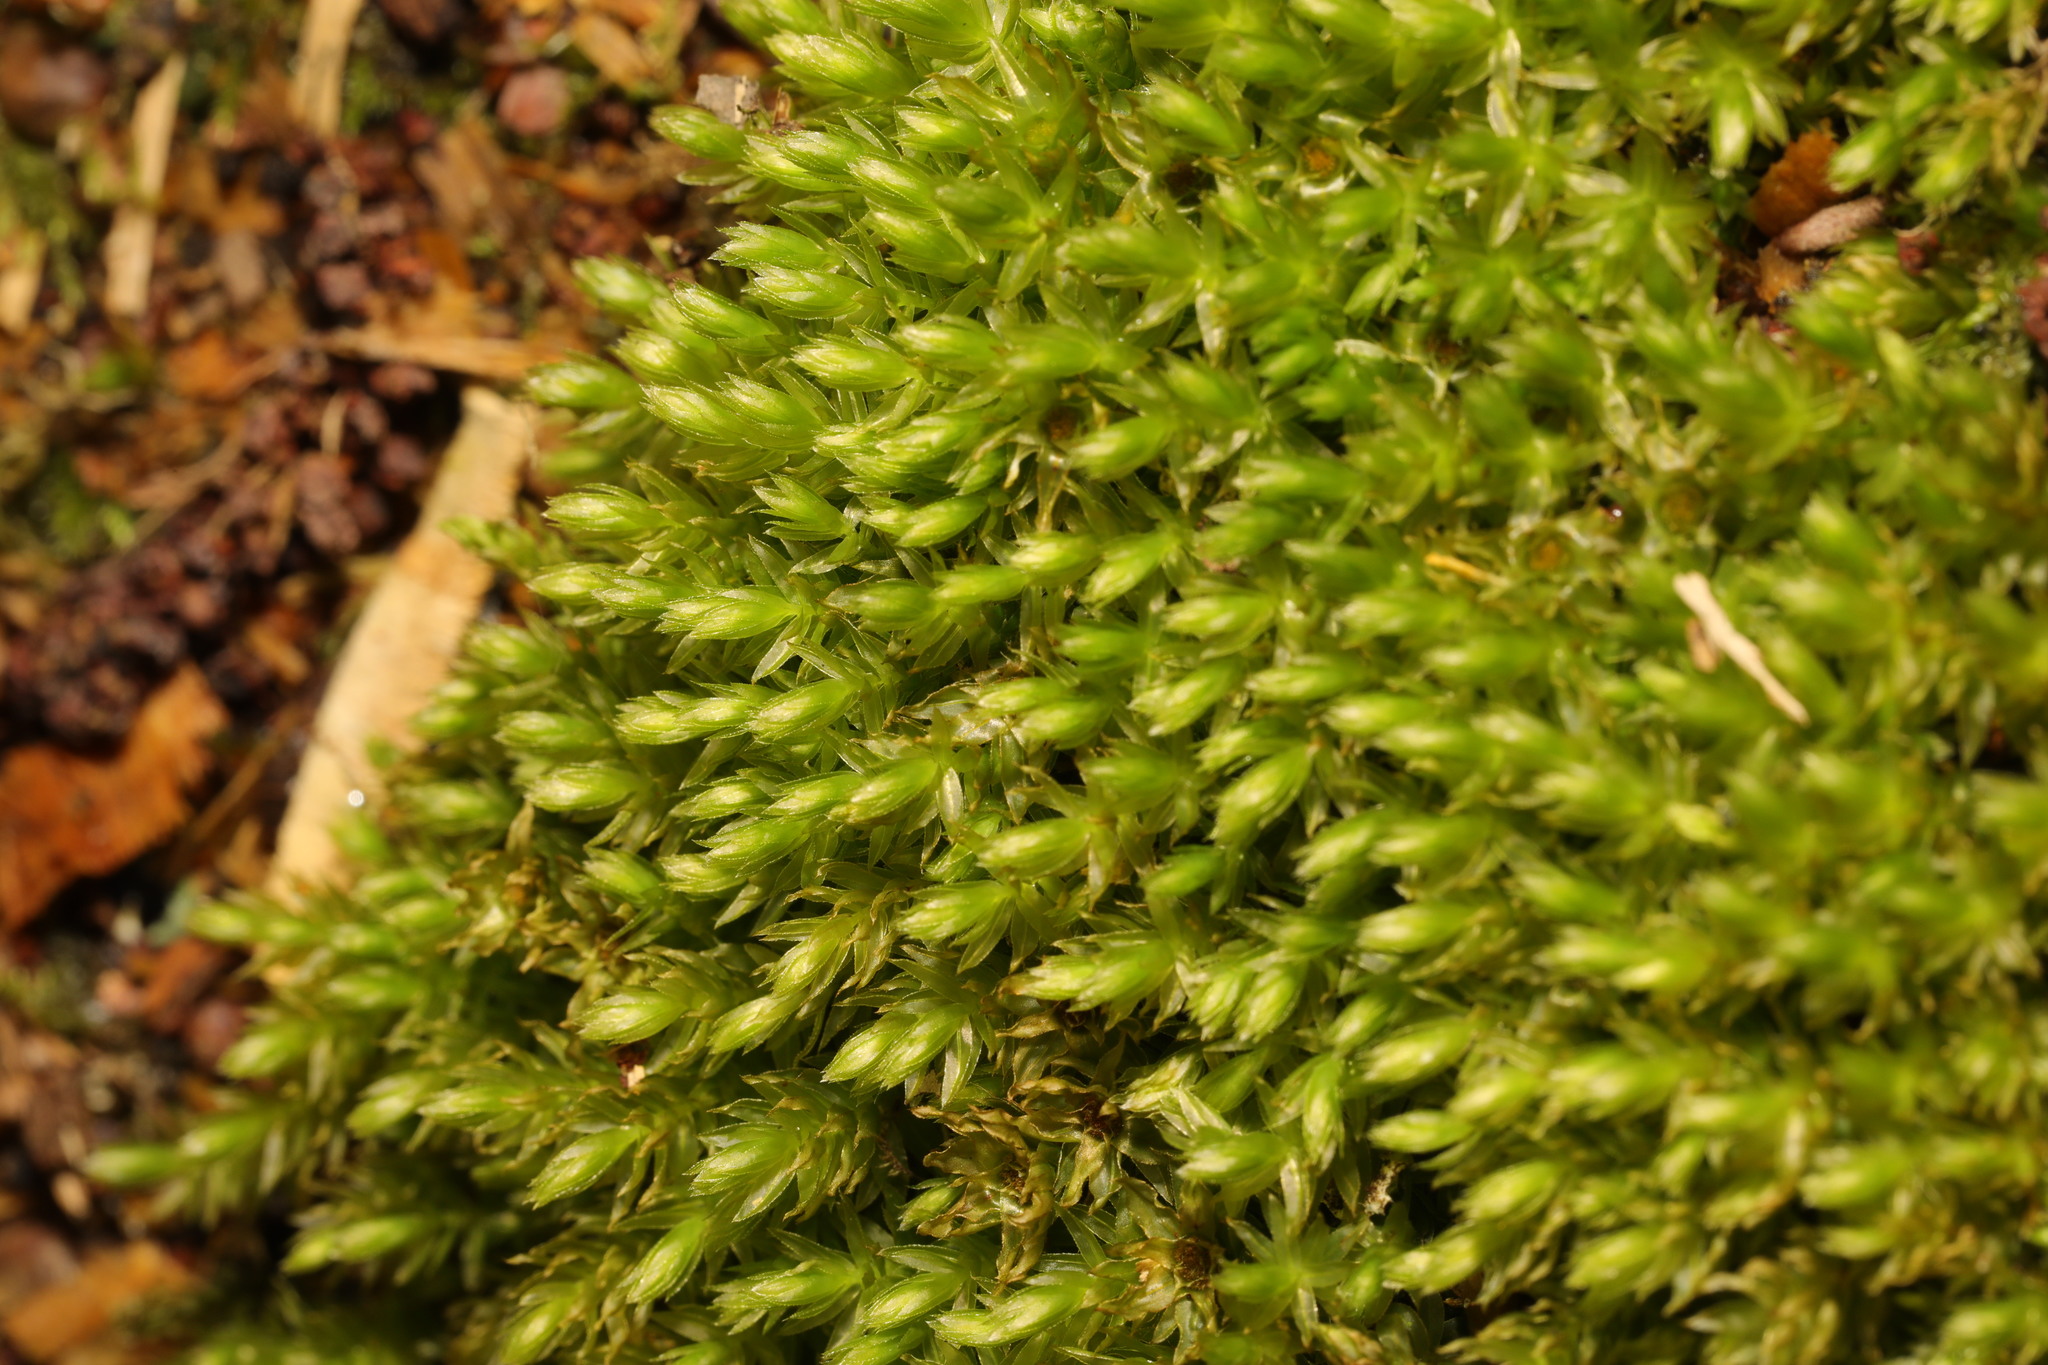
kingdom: Plantae
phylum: Bryophyta
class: Bryopsida
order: Bryales
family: Mniaceae
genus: Mnium
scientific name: Mnium hornum
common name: Swan's-neck leafy moss
